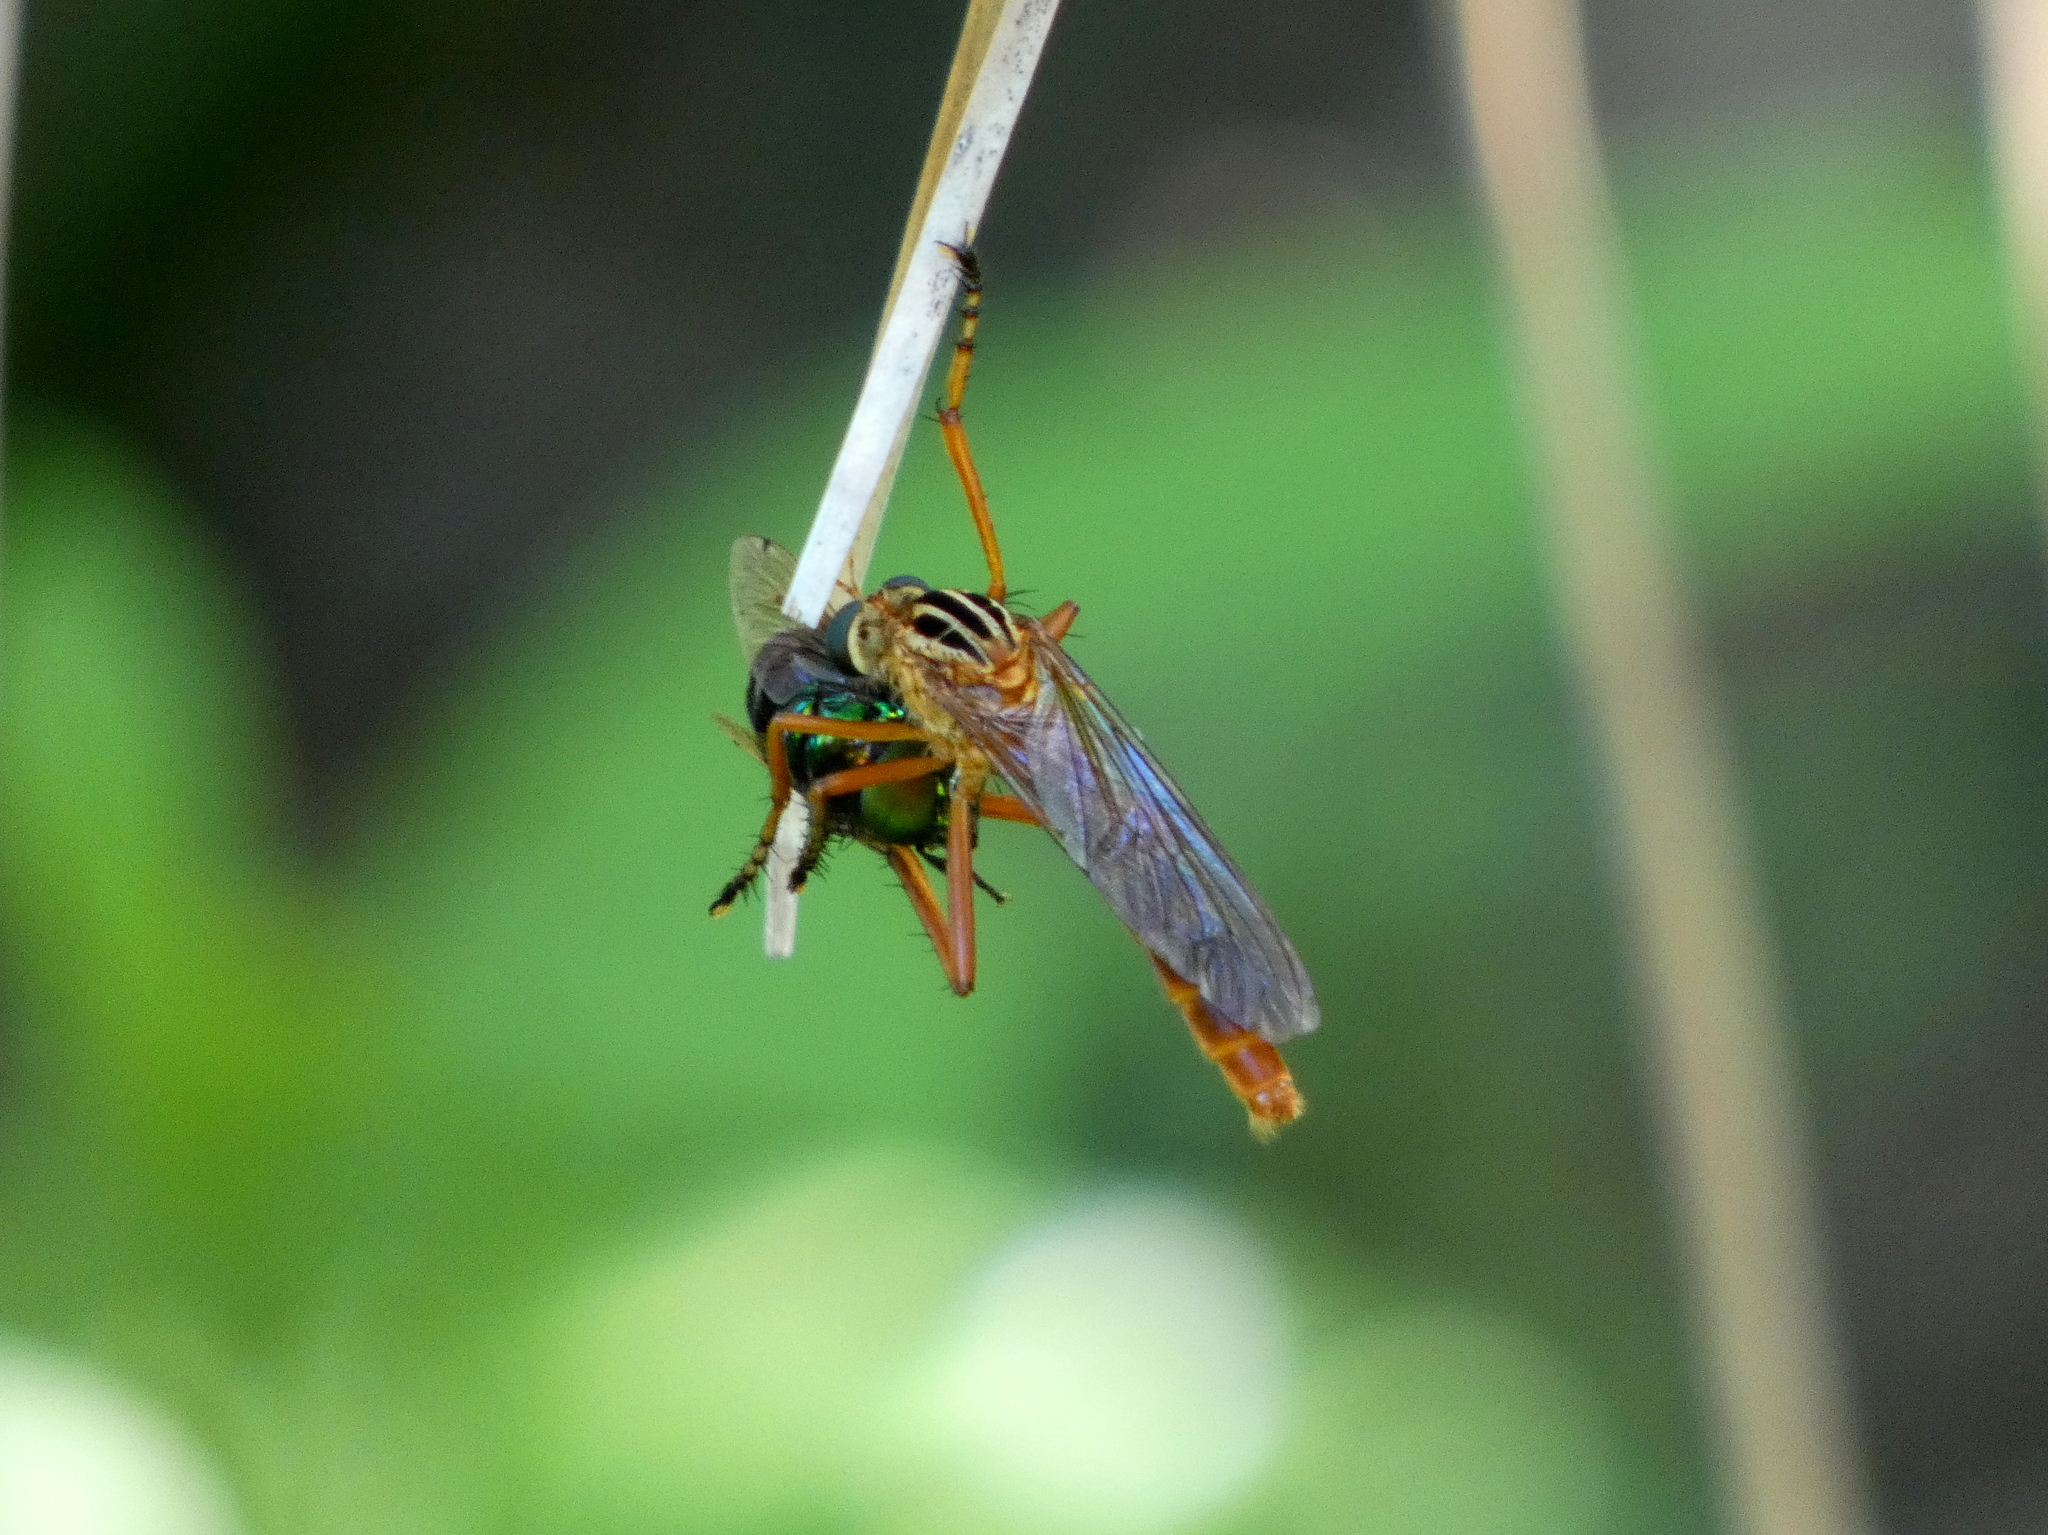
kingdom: Animalia
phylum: Arthropoda
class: Insecta
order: Diptera
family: Asilidae
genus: Diogmites
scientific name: Diogmites neoternatus
